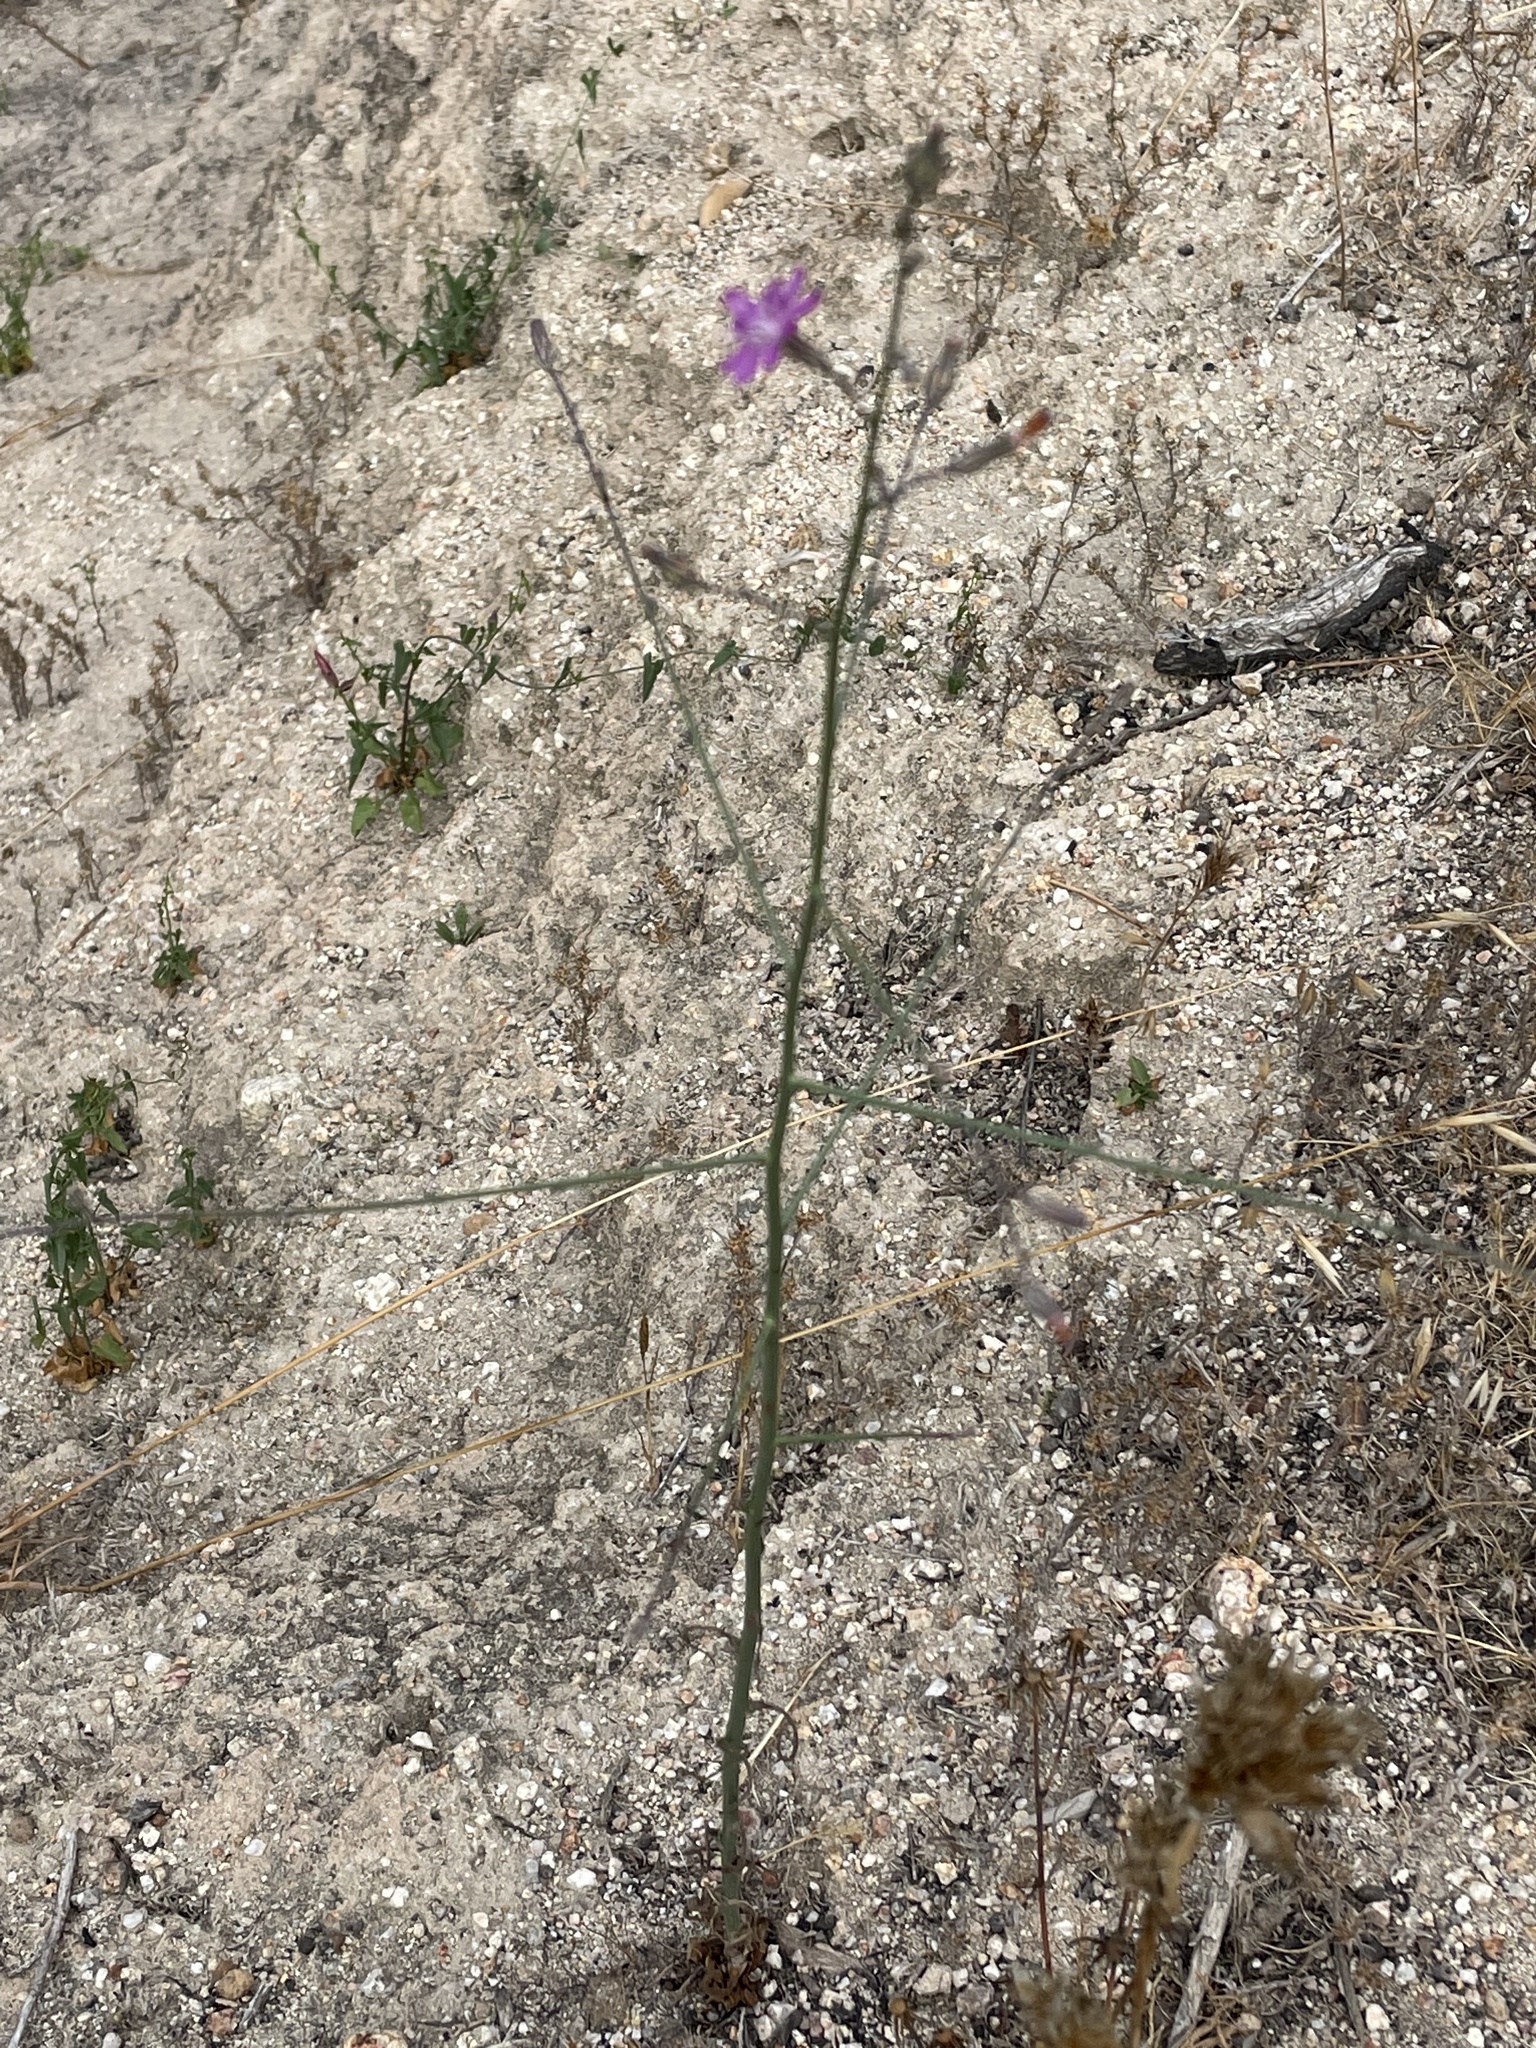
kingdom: Plantae
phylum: Tracheophyta
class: Magnoliopsida
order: Asterales
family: Asteraceae
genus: Stephanomeria
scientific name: Stephanomeria virgata
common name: Virgate wirelettuce
